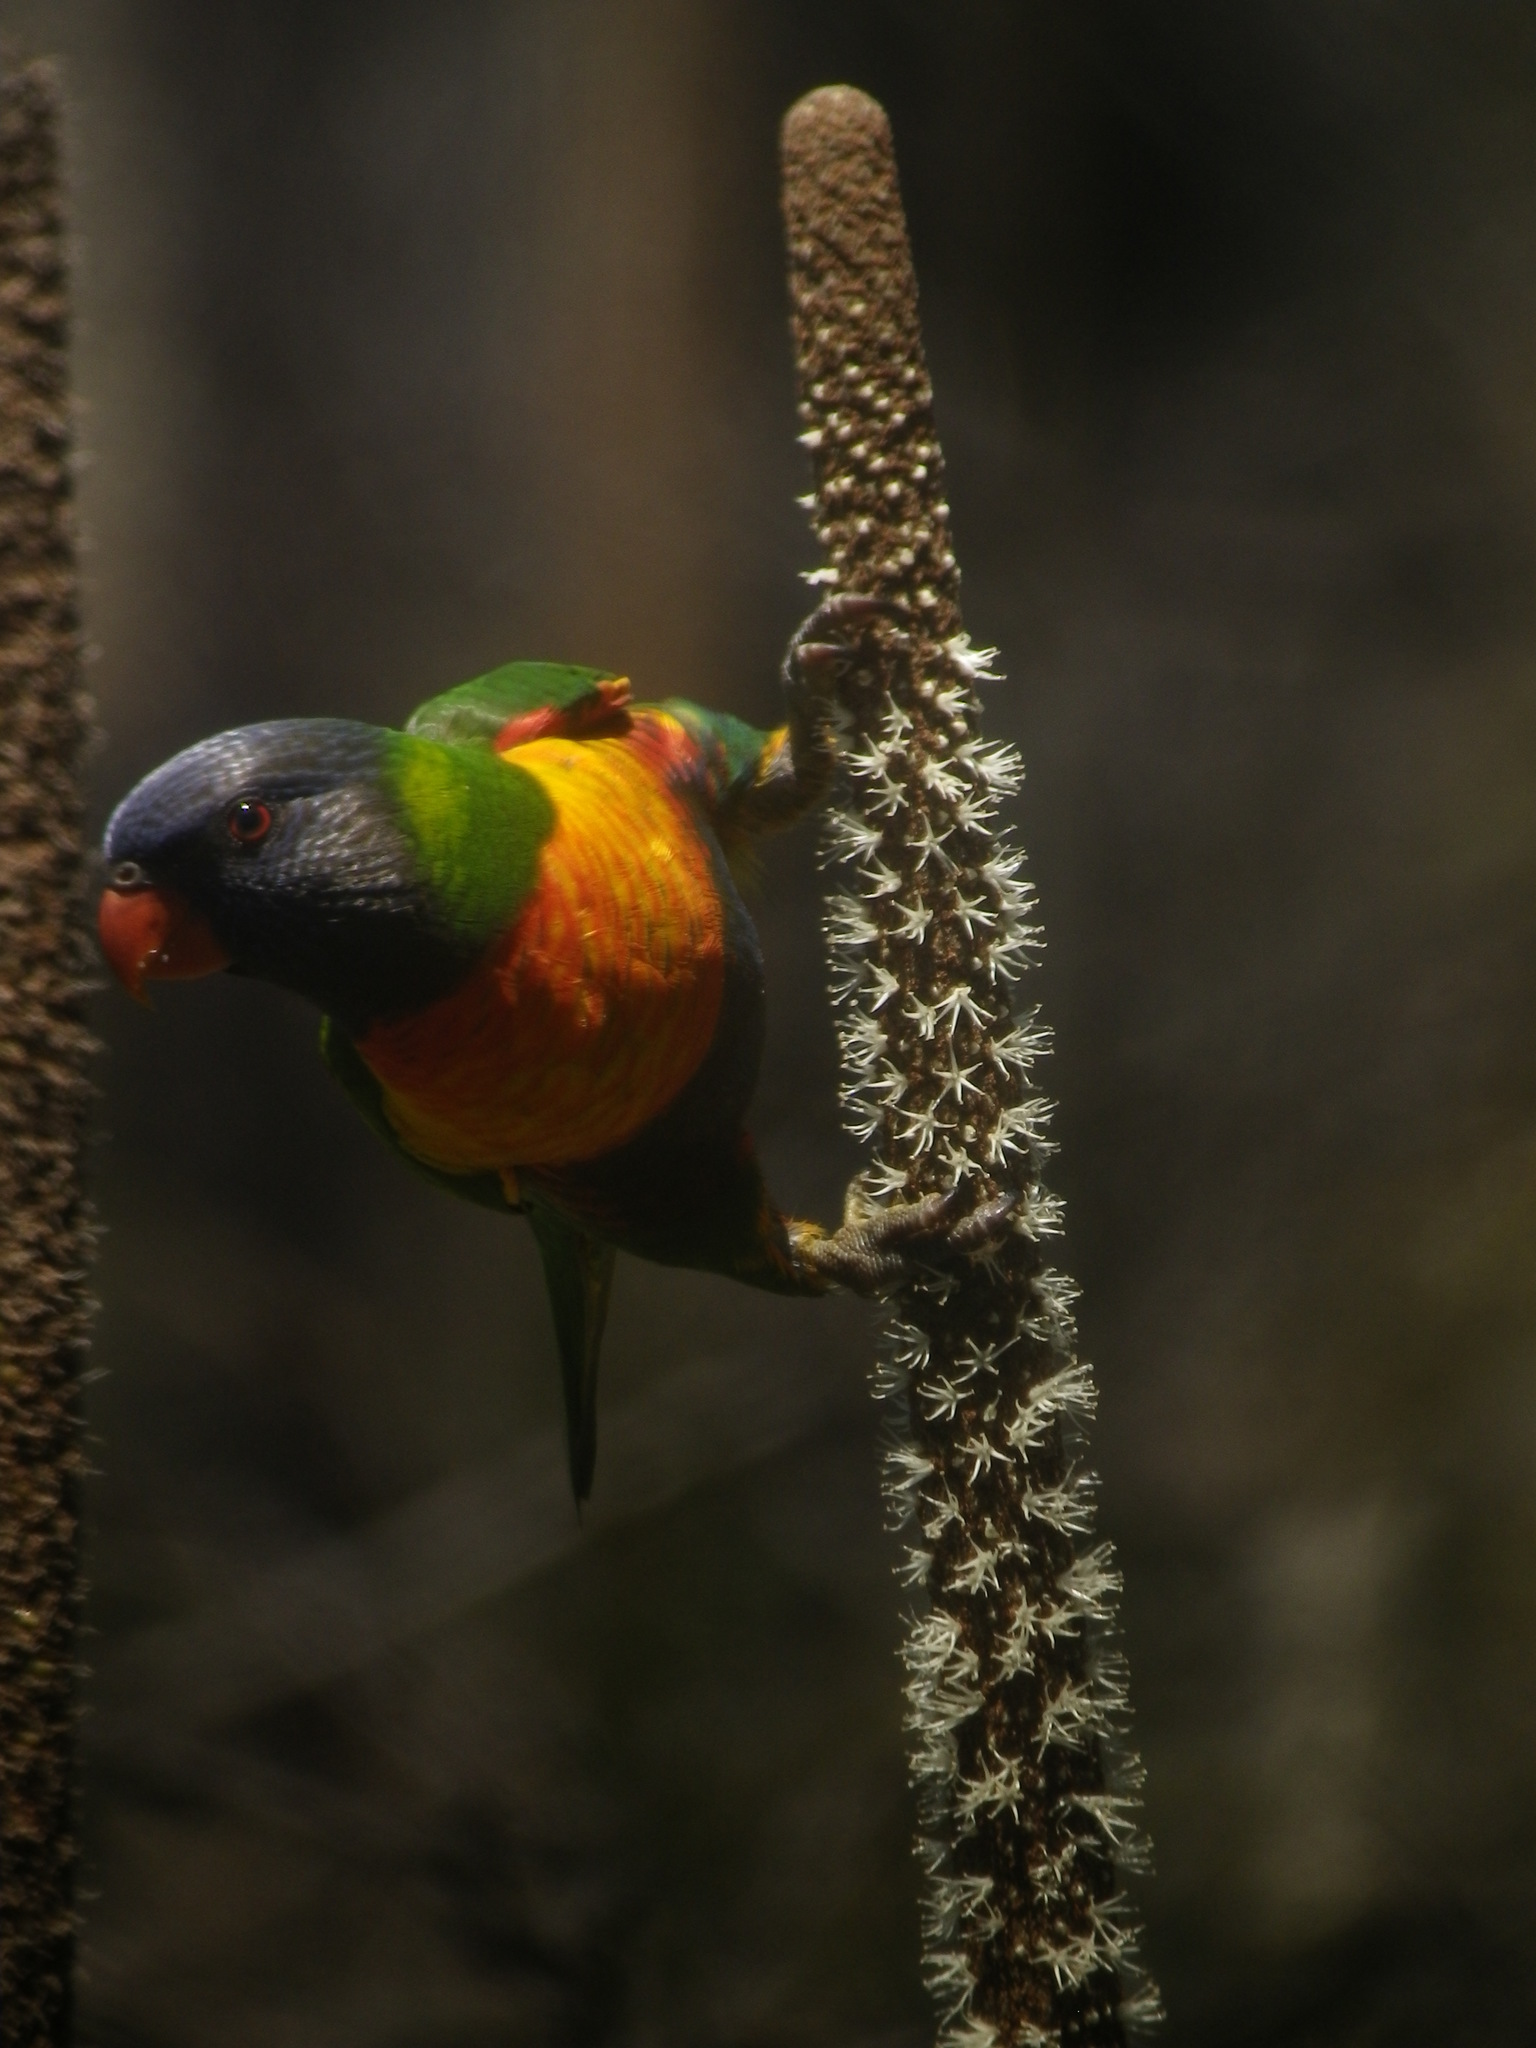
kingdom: Animalia
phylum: Chordata
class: Aves
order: Psittaciformes
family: Psittacidae
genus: Trichoglossus
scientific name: Trichoglossus haematodus
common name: Coconut lorikeet
